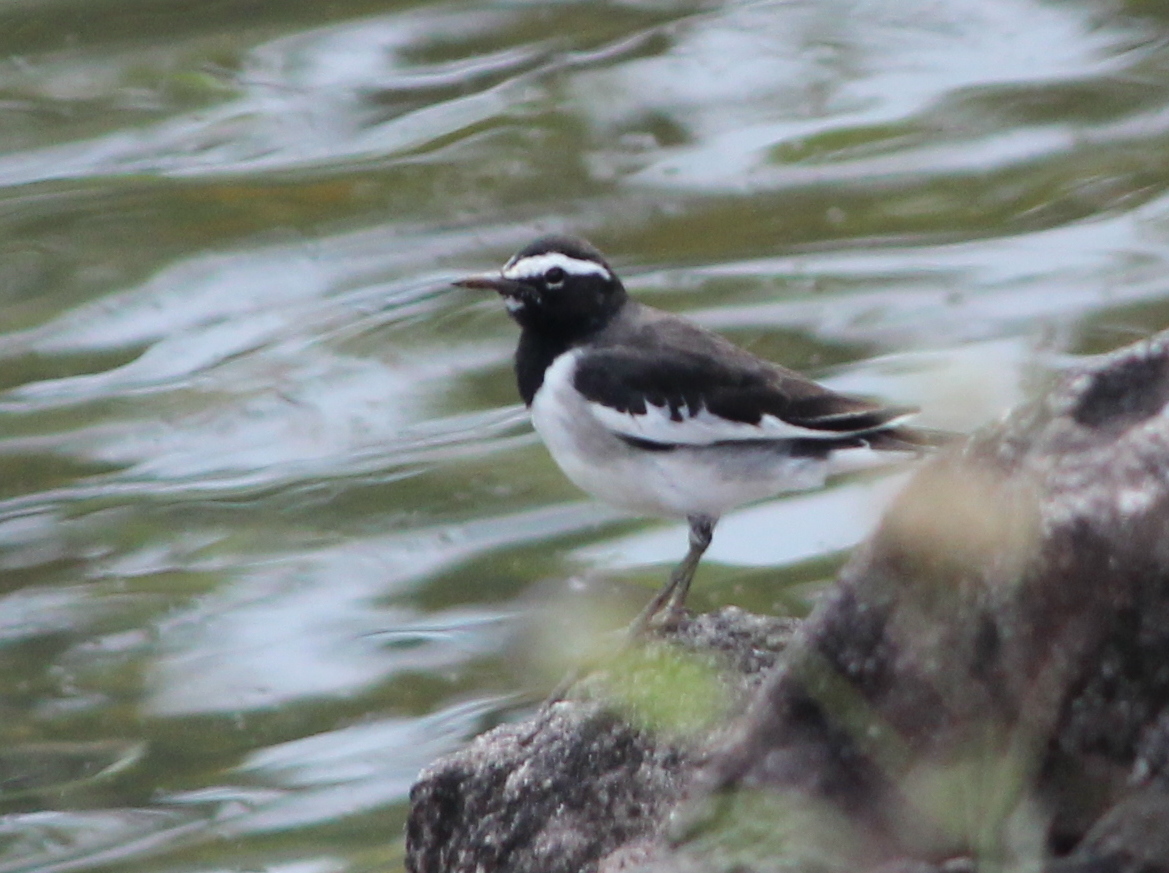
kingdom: Animalia
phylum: Chordata
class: Aves
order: Passeriformes
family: Motacillidae
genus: Motacilla
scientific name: Motacilla maderaspatensis
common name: White-browed wagtail
